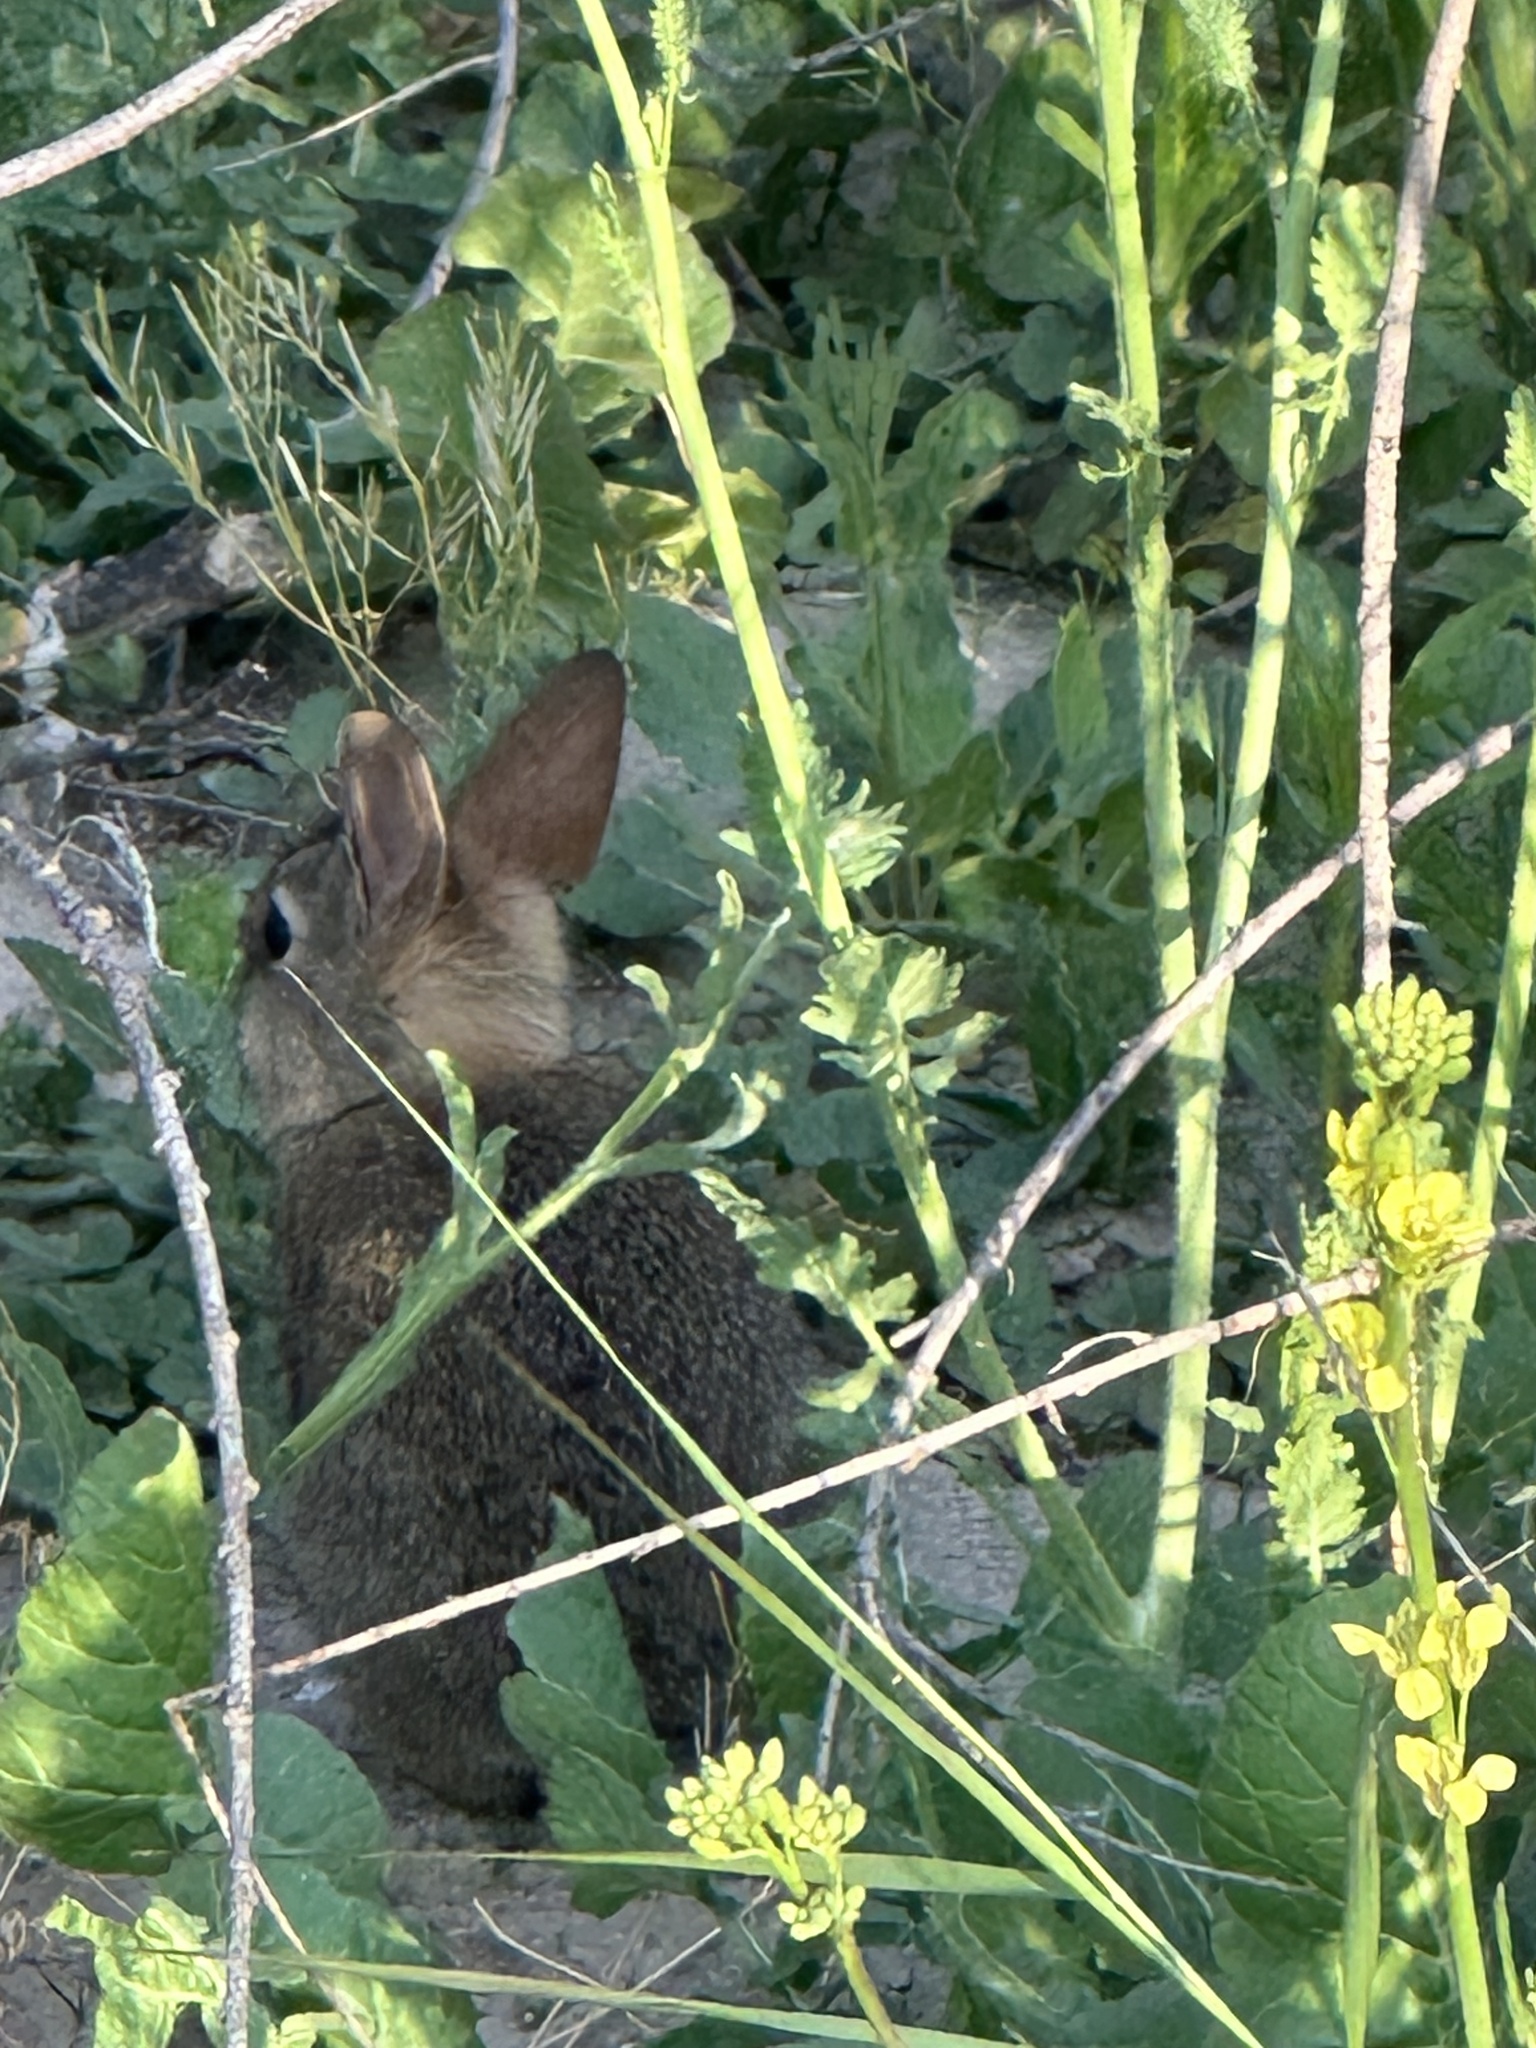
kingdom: Animalia
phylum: Chordata
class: Mammalia
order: Lagomorpha
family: Leporidae
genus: Sylvilagus
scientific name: Sylvilagus bachmani
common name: Brush rabbit
